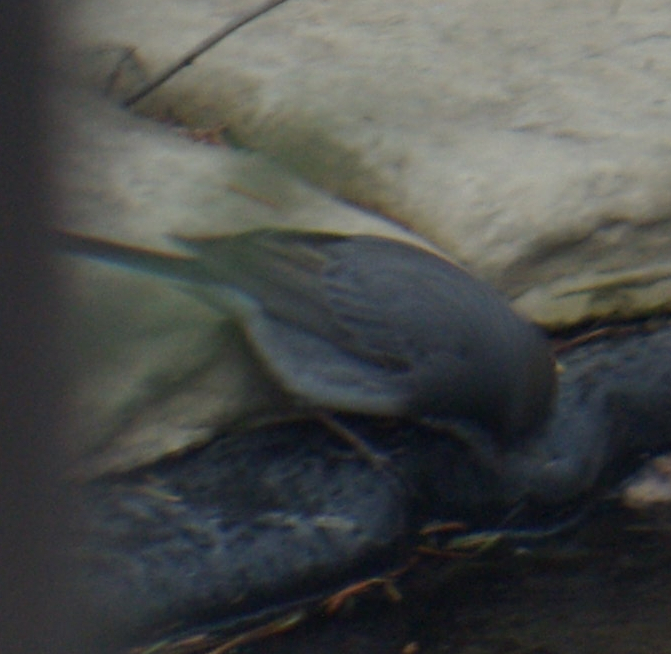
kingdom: Animalia
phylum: Chordata
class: Aves
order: Passeriformes
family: Passerellidae
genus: Junco
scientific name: Junco hyemalis
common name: Dark-eyed junco
